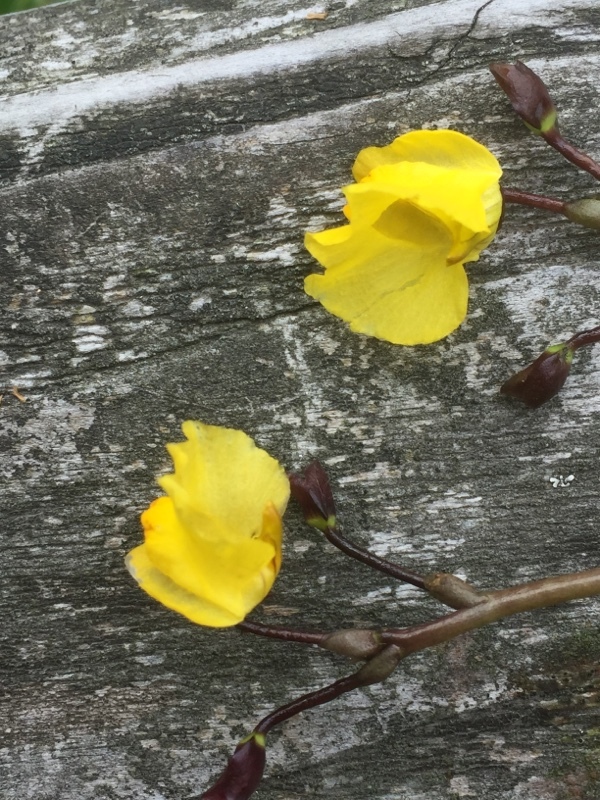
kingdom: Plantae
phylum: Tracheophyta
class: Magnoliopsida
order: Lamiales
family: Lentibulariaceae
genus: Utricularia
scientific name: Utricularia vulgaris
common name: Greater bladderwort
